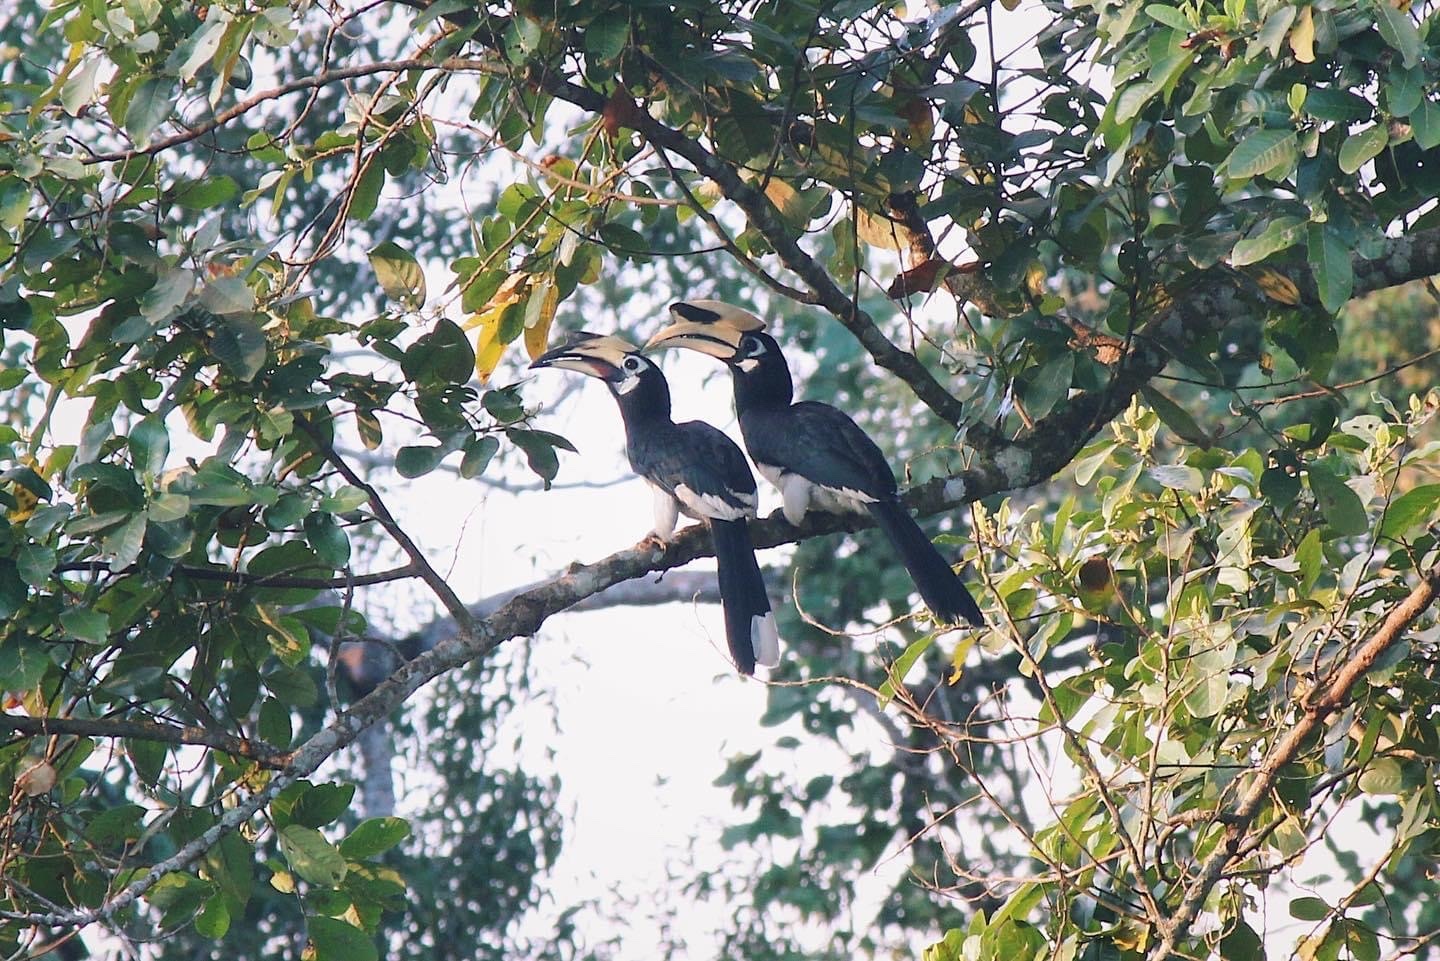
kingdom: Animalia
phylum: Chordata
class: Aves
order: Bucerotiformes
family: Bucerotidae
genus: Anthracoceros
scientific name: Anthracoceros albirostris
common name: Oriental pied-hornbill
